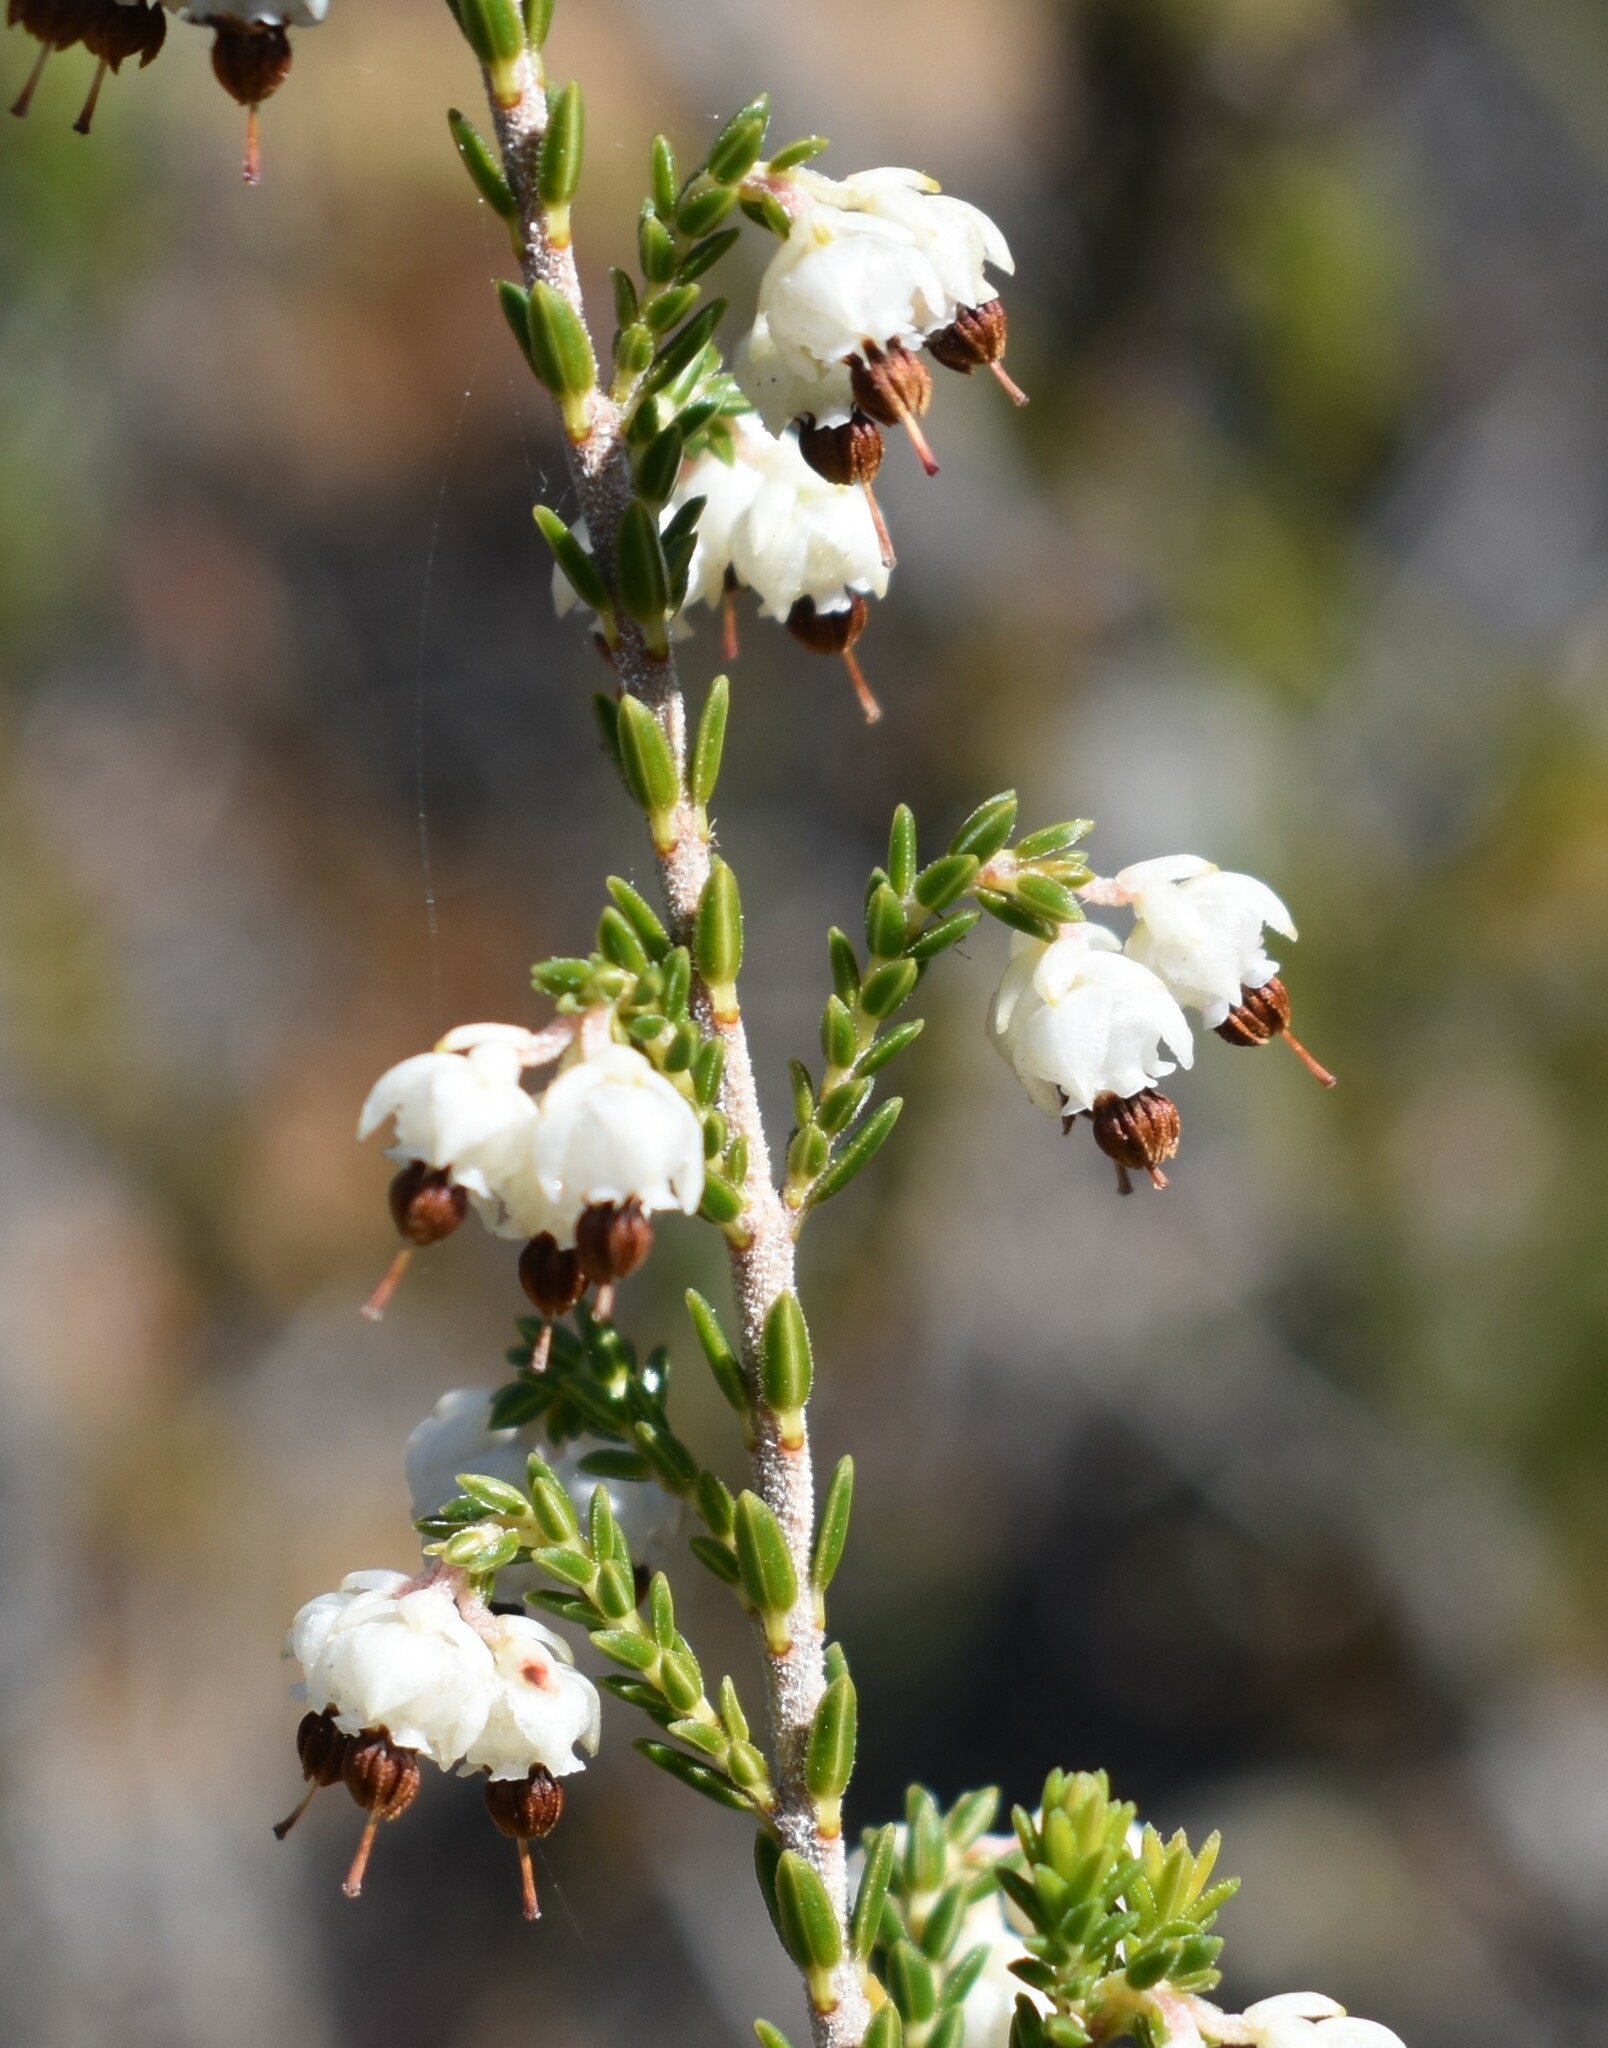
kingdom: Plantae
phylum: Tracheophyta
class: Magnoliopsida
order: Ericales
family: Ericaceae
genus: Erica
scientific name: Erica triceps
